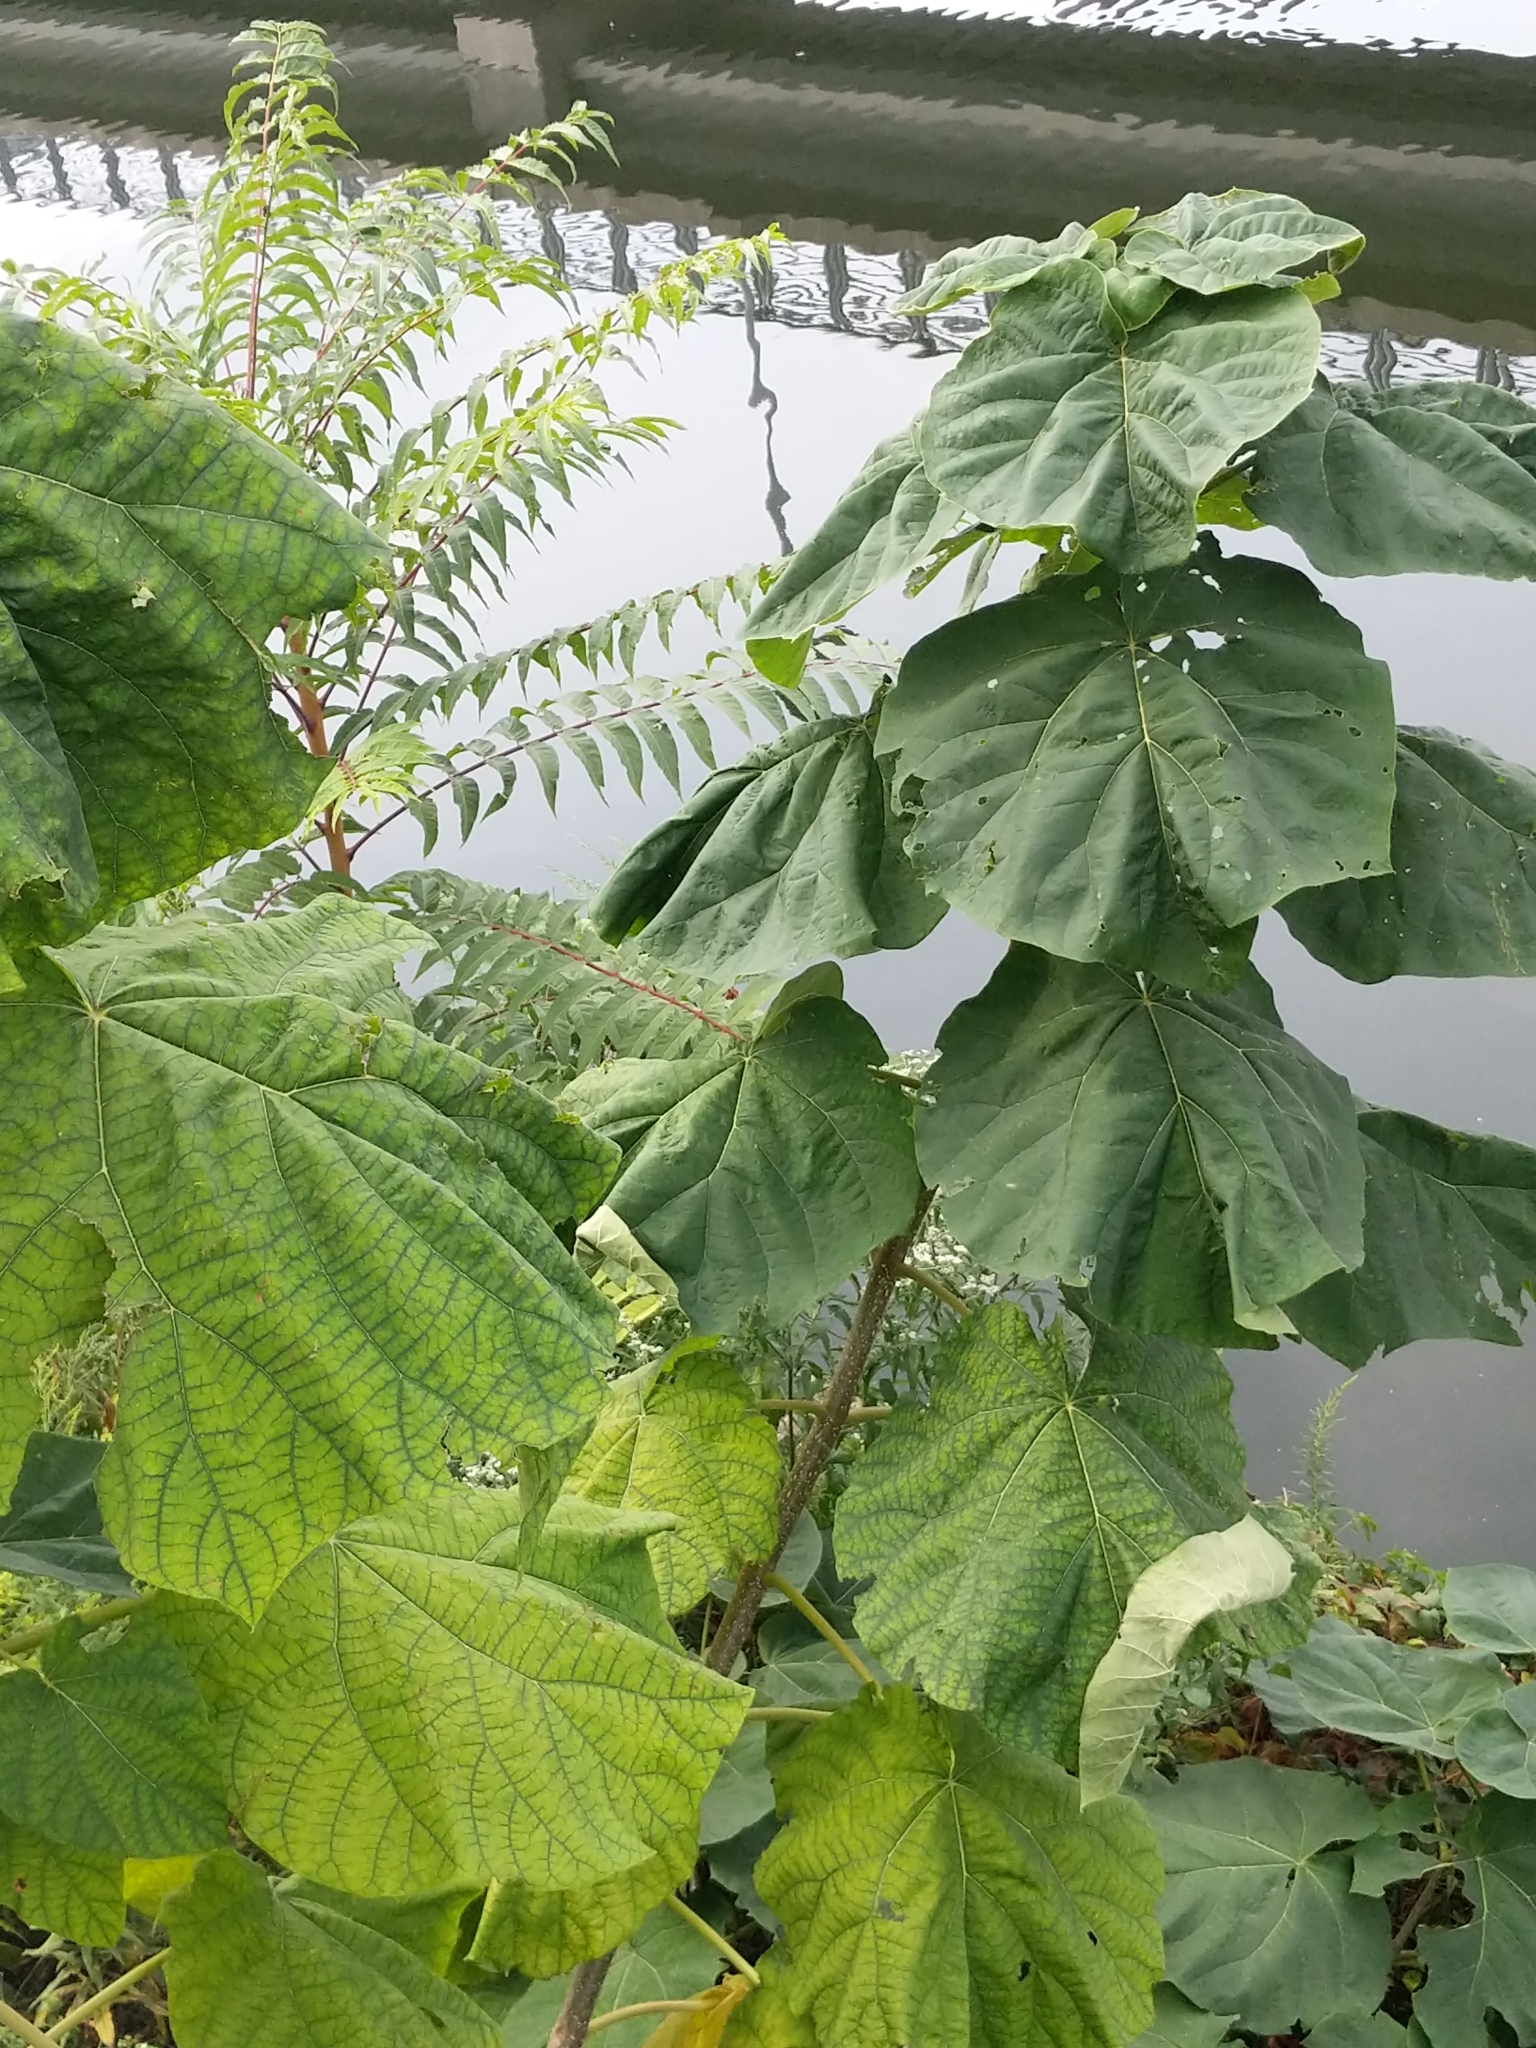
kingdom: Plantae
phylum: Tracheophyta
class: Magnoliopsida
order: Lamiales
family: Paulowniaceae
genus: Paulownia
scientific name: Paulownia tomentosa
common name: Foxglove-tree
